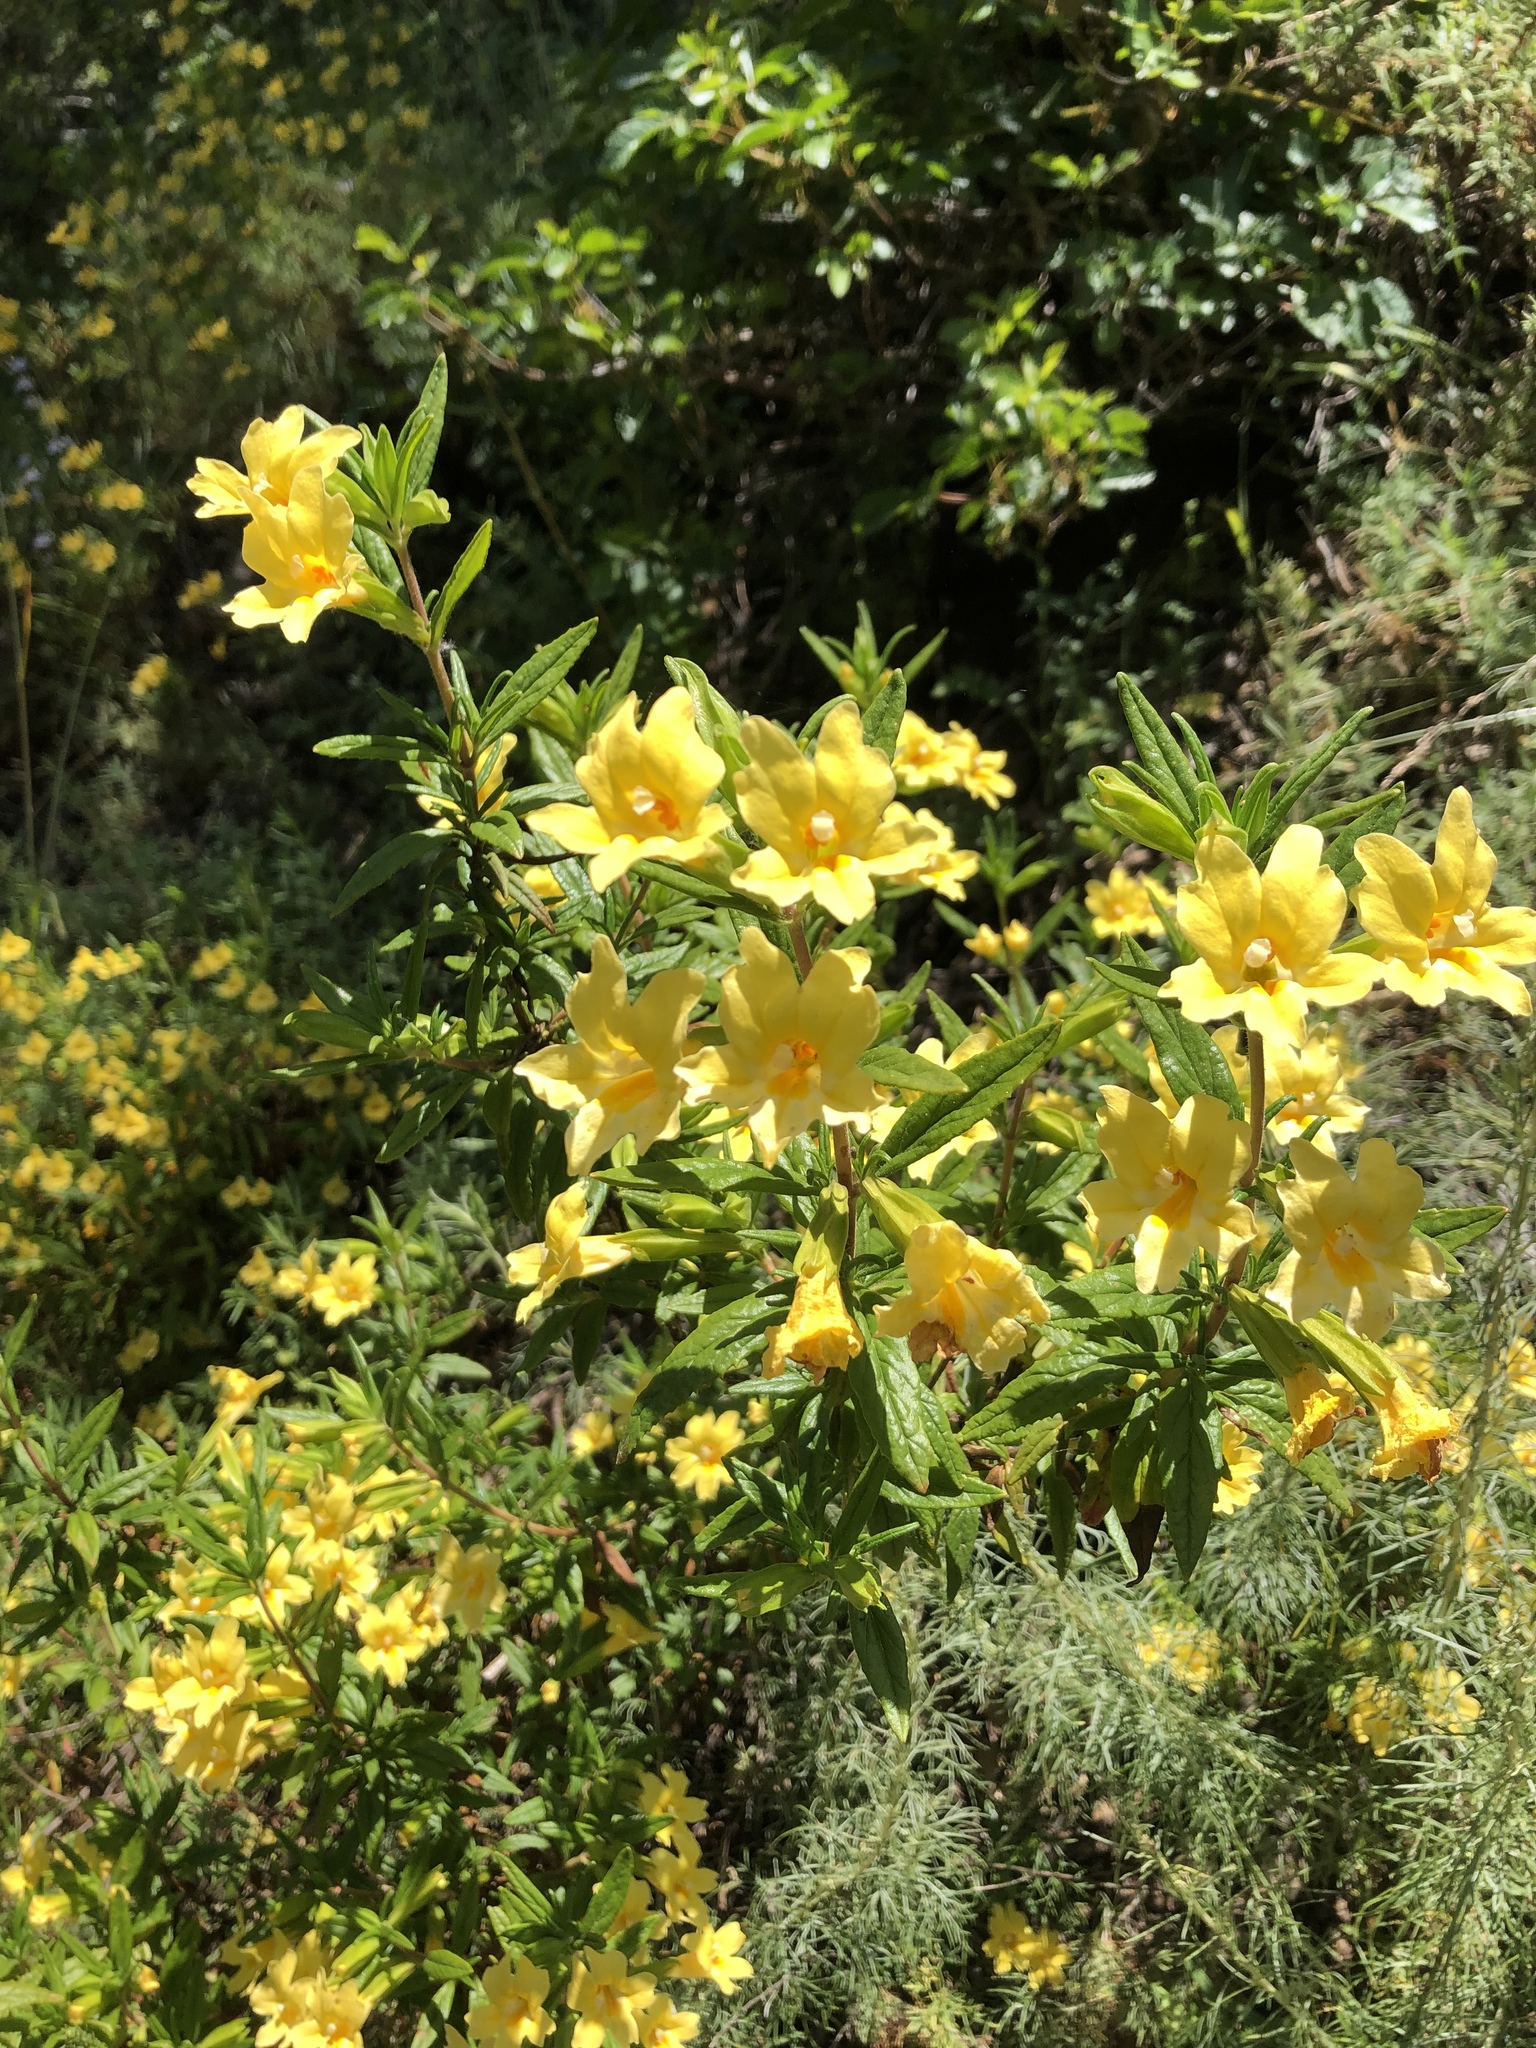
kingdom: Plantae
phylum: Tracheophyta
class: Magnoliopsida
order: Lamiales
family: Phrymaceae
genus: Diplacus
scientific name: Diplacus aurantiacus
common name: Bush monkey-flower
